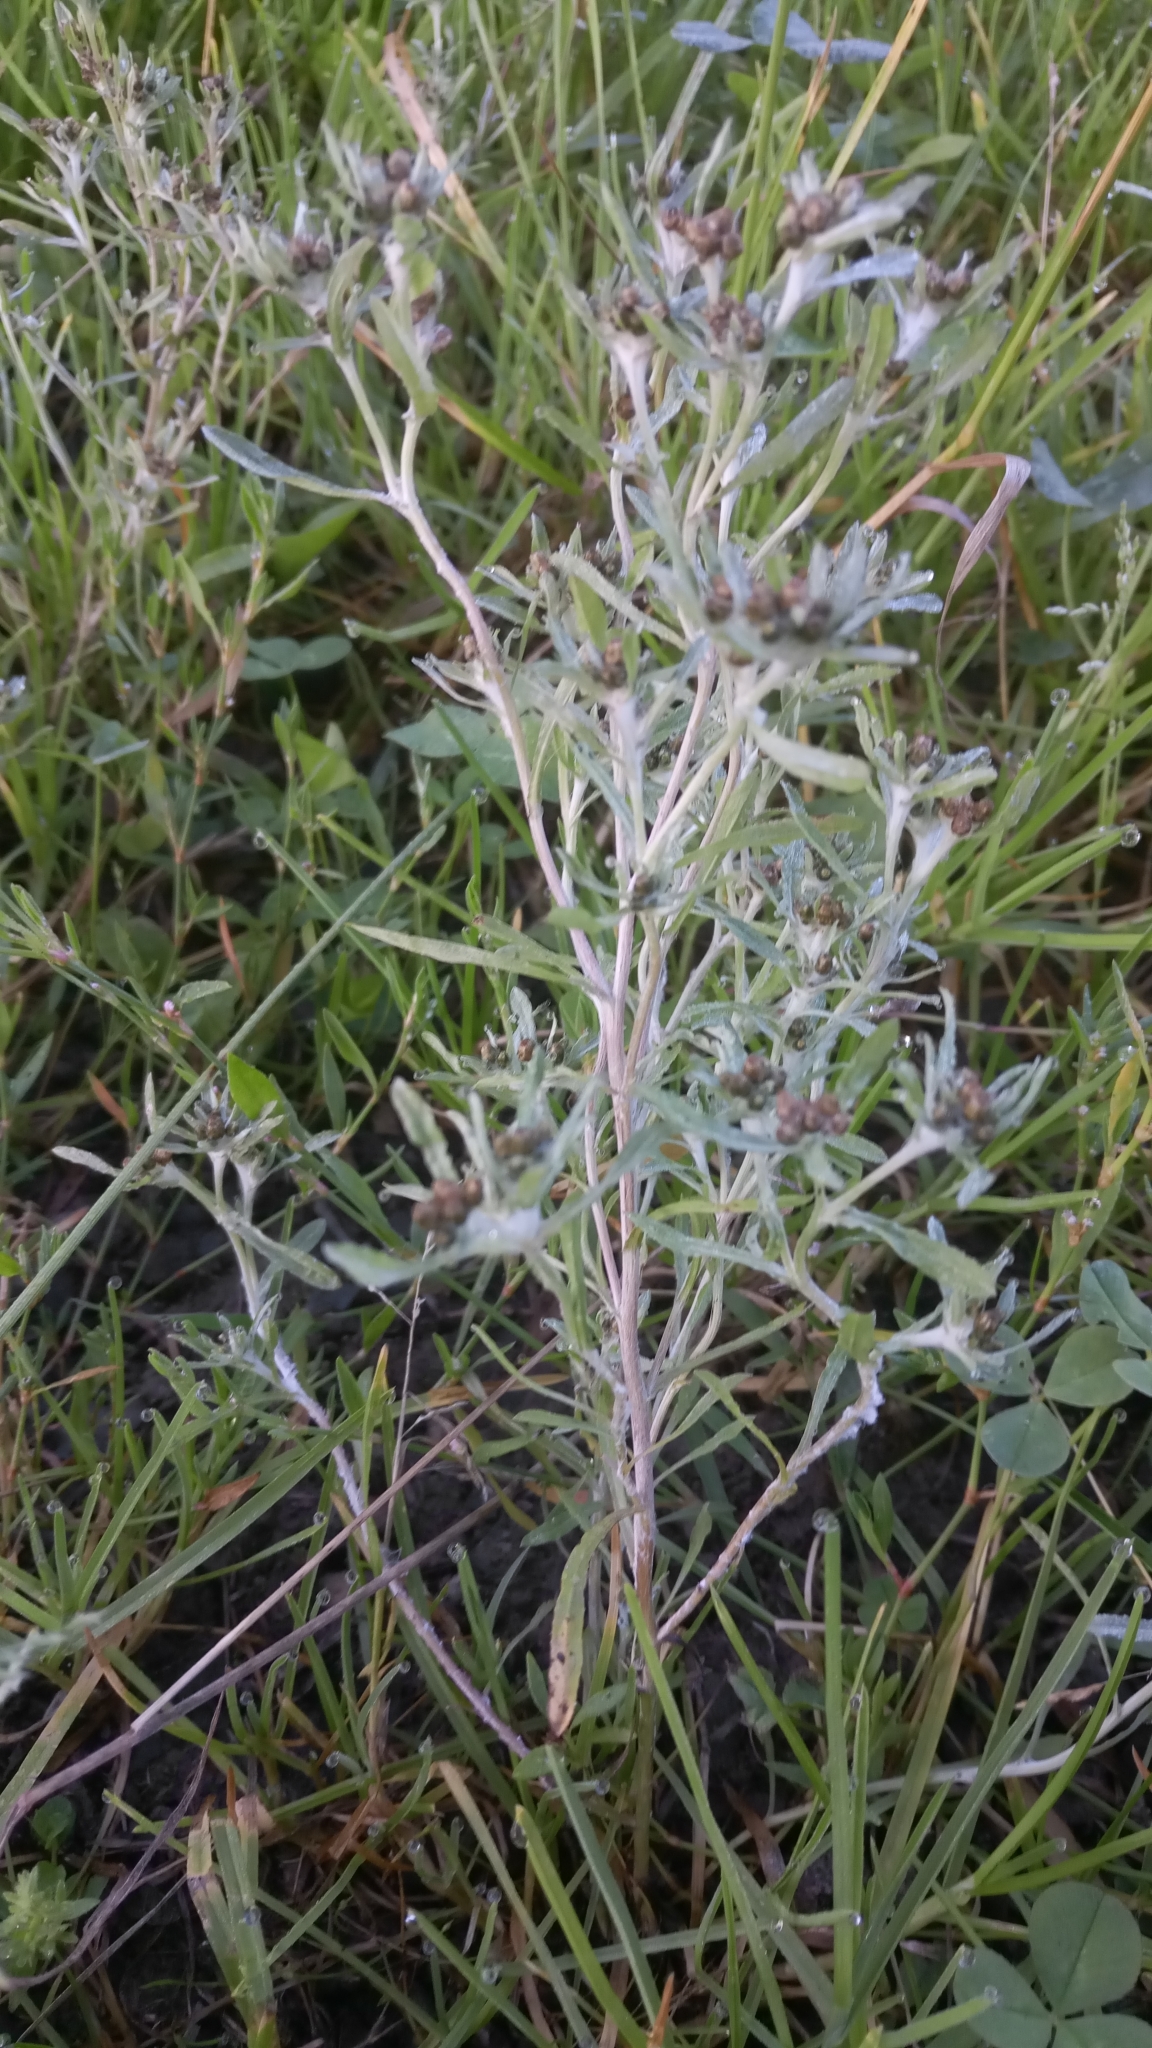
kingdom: Plantae
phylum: Tracheophyta
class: Magnoliopsida
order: Asterales
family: Asteraceae
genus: Gnaphalium
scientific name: Gnaphalium uliginosum
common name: Marsh cudweed
